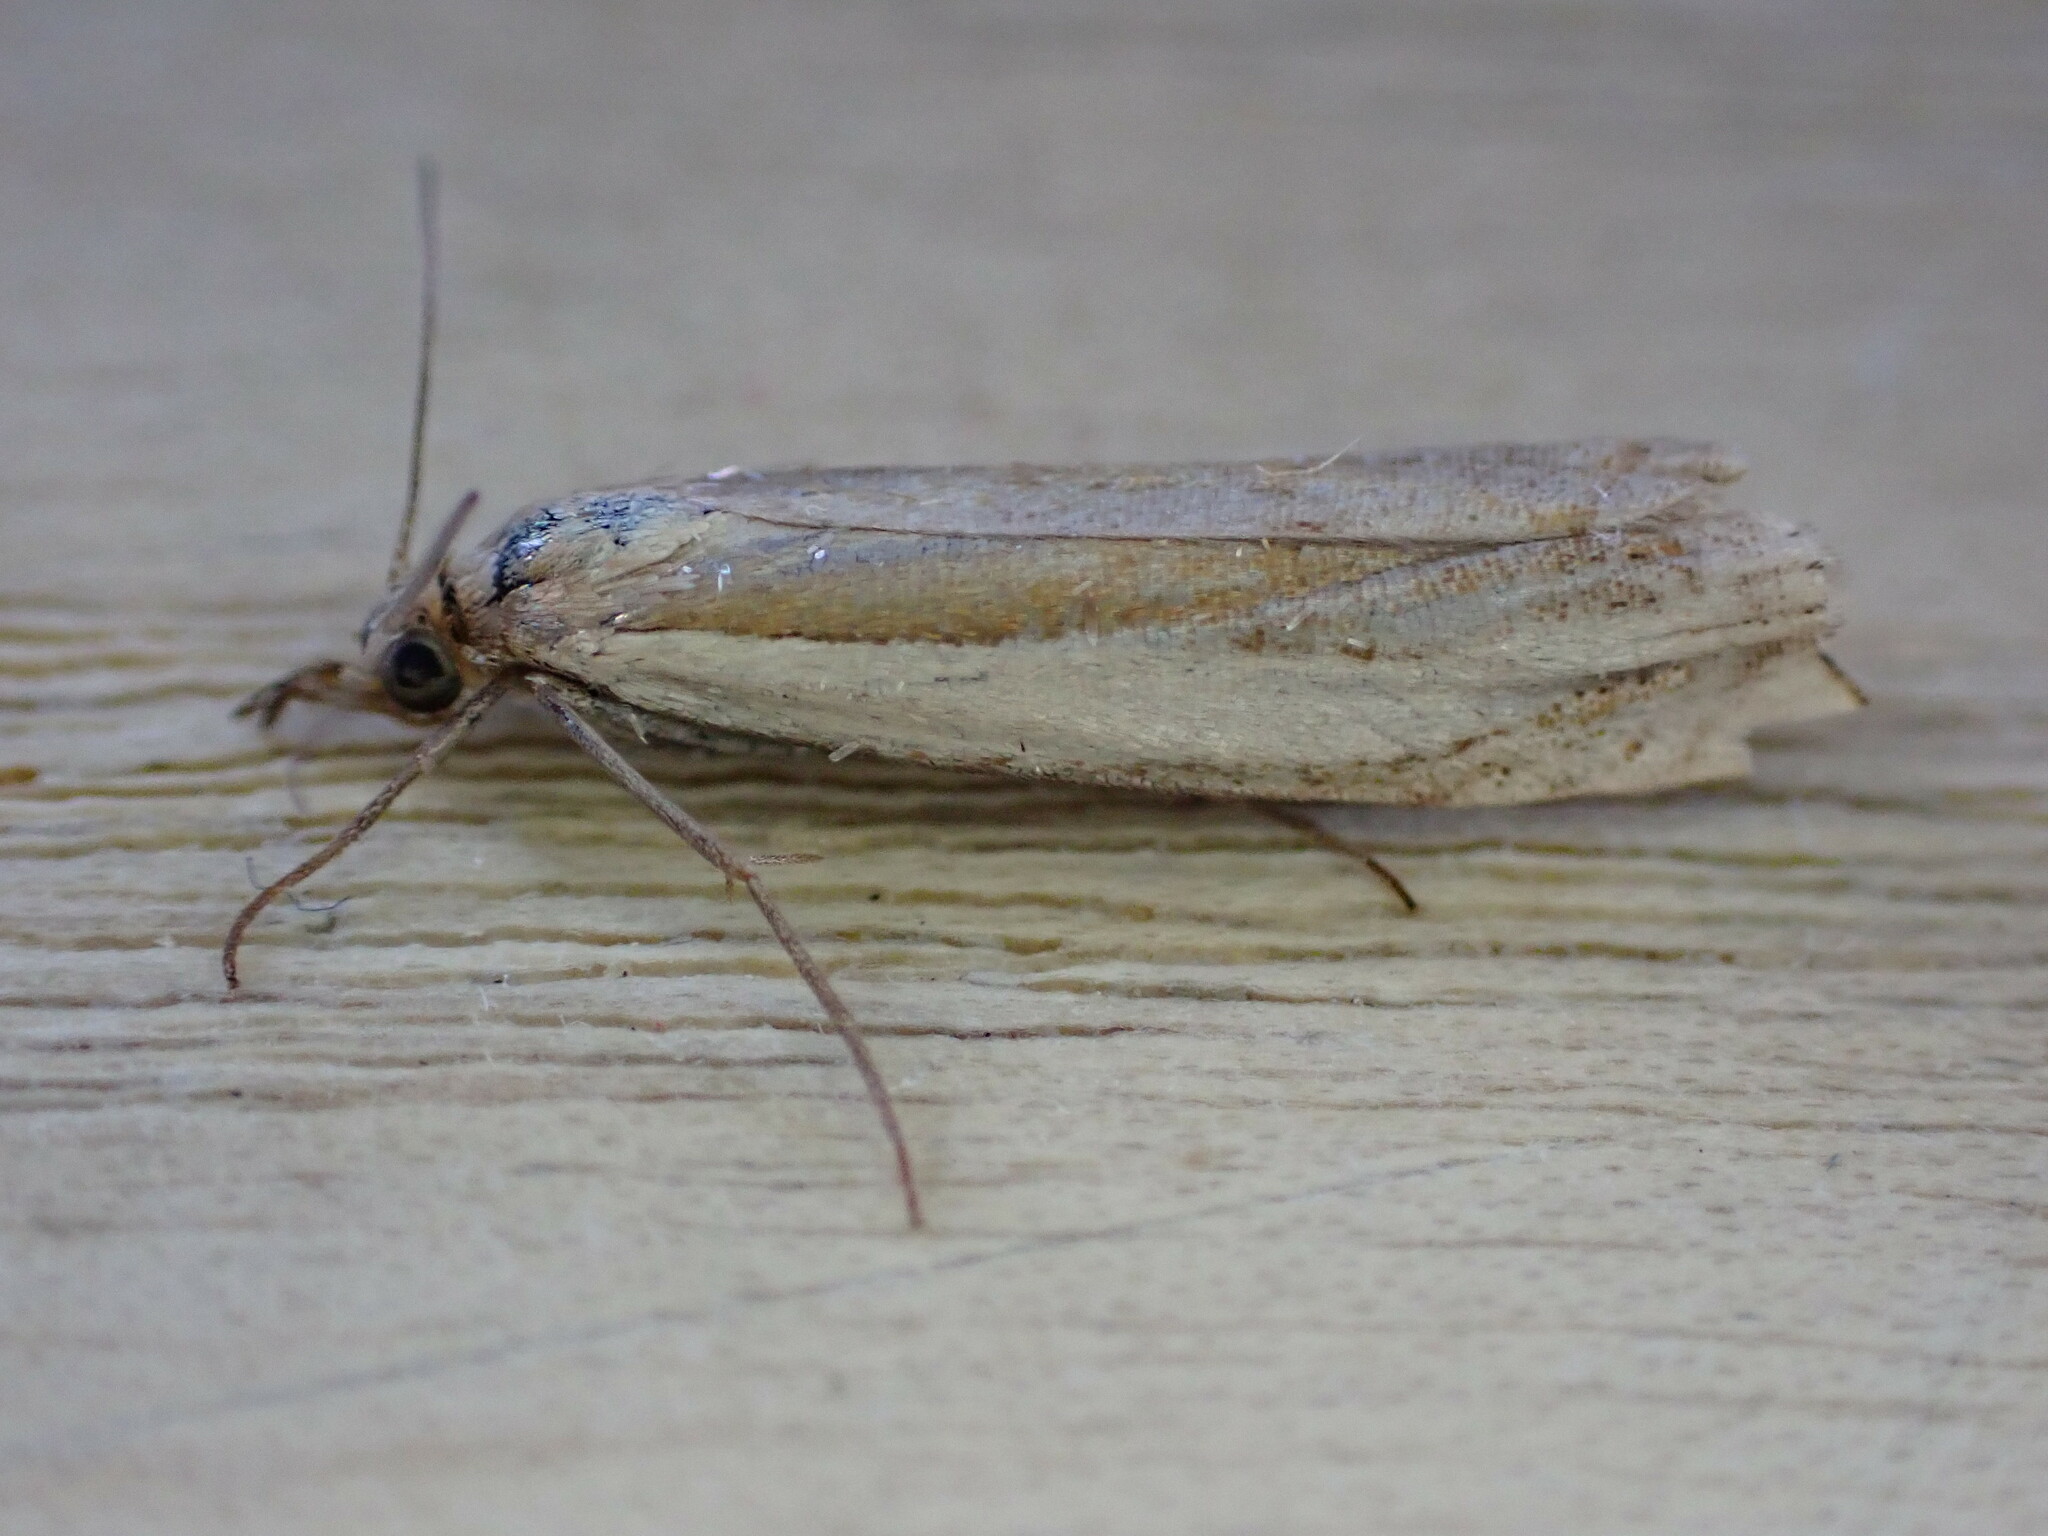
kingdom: Animalia
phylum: Arthropoda
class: Insecta
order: Lepidoptera
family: Crambidae
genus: Crambus
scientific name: Crambus pascuella
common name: Inlaid grass-veneer
